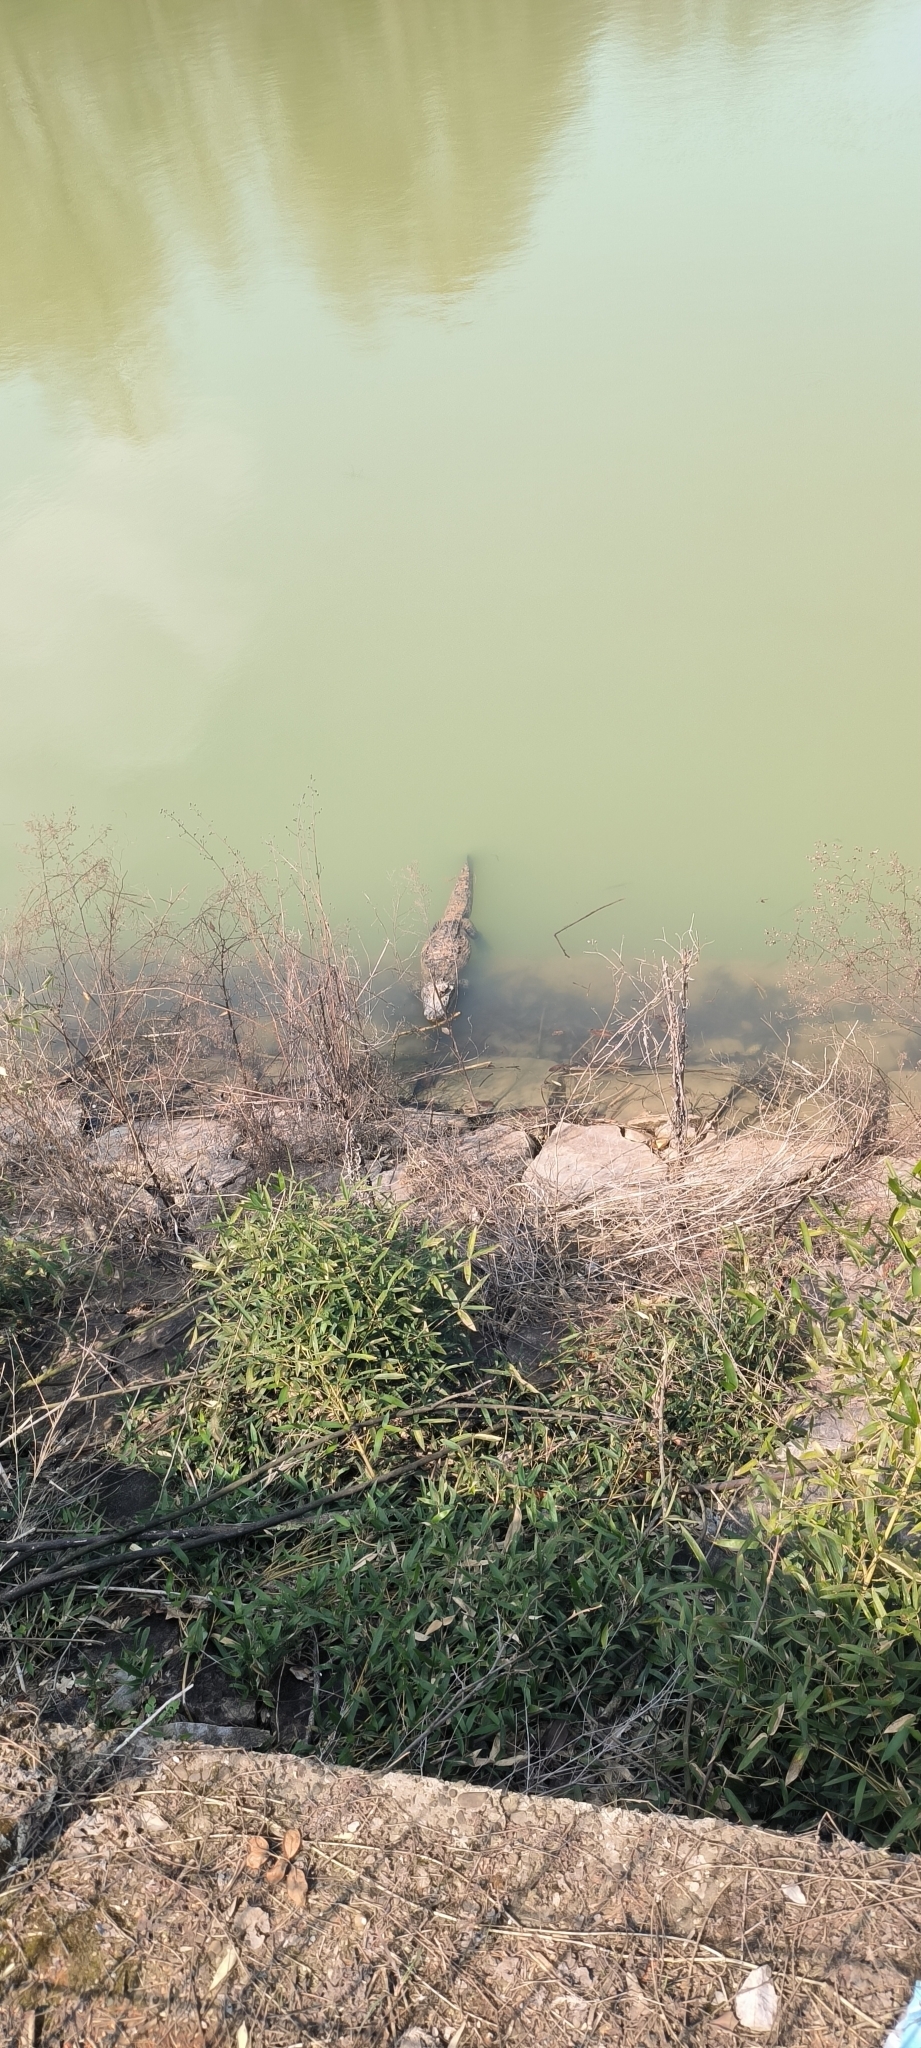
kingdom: Animalia
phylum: Chordata
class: Crocodylia
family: Alligatoridae
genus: Alligator
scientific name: Alligator sinensis
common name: Chinese alligator
